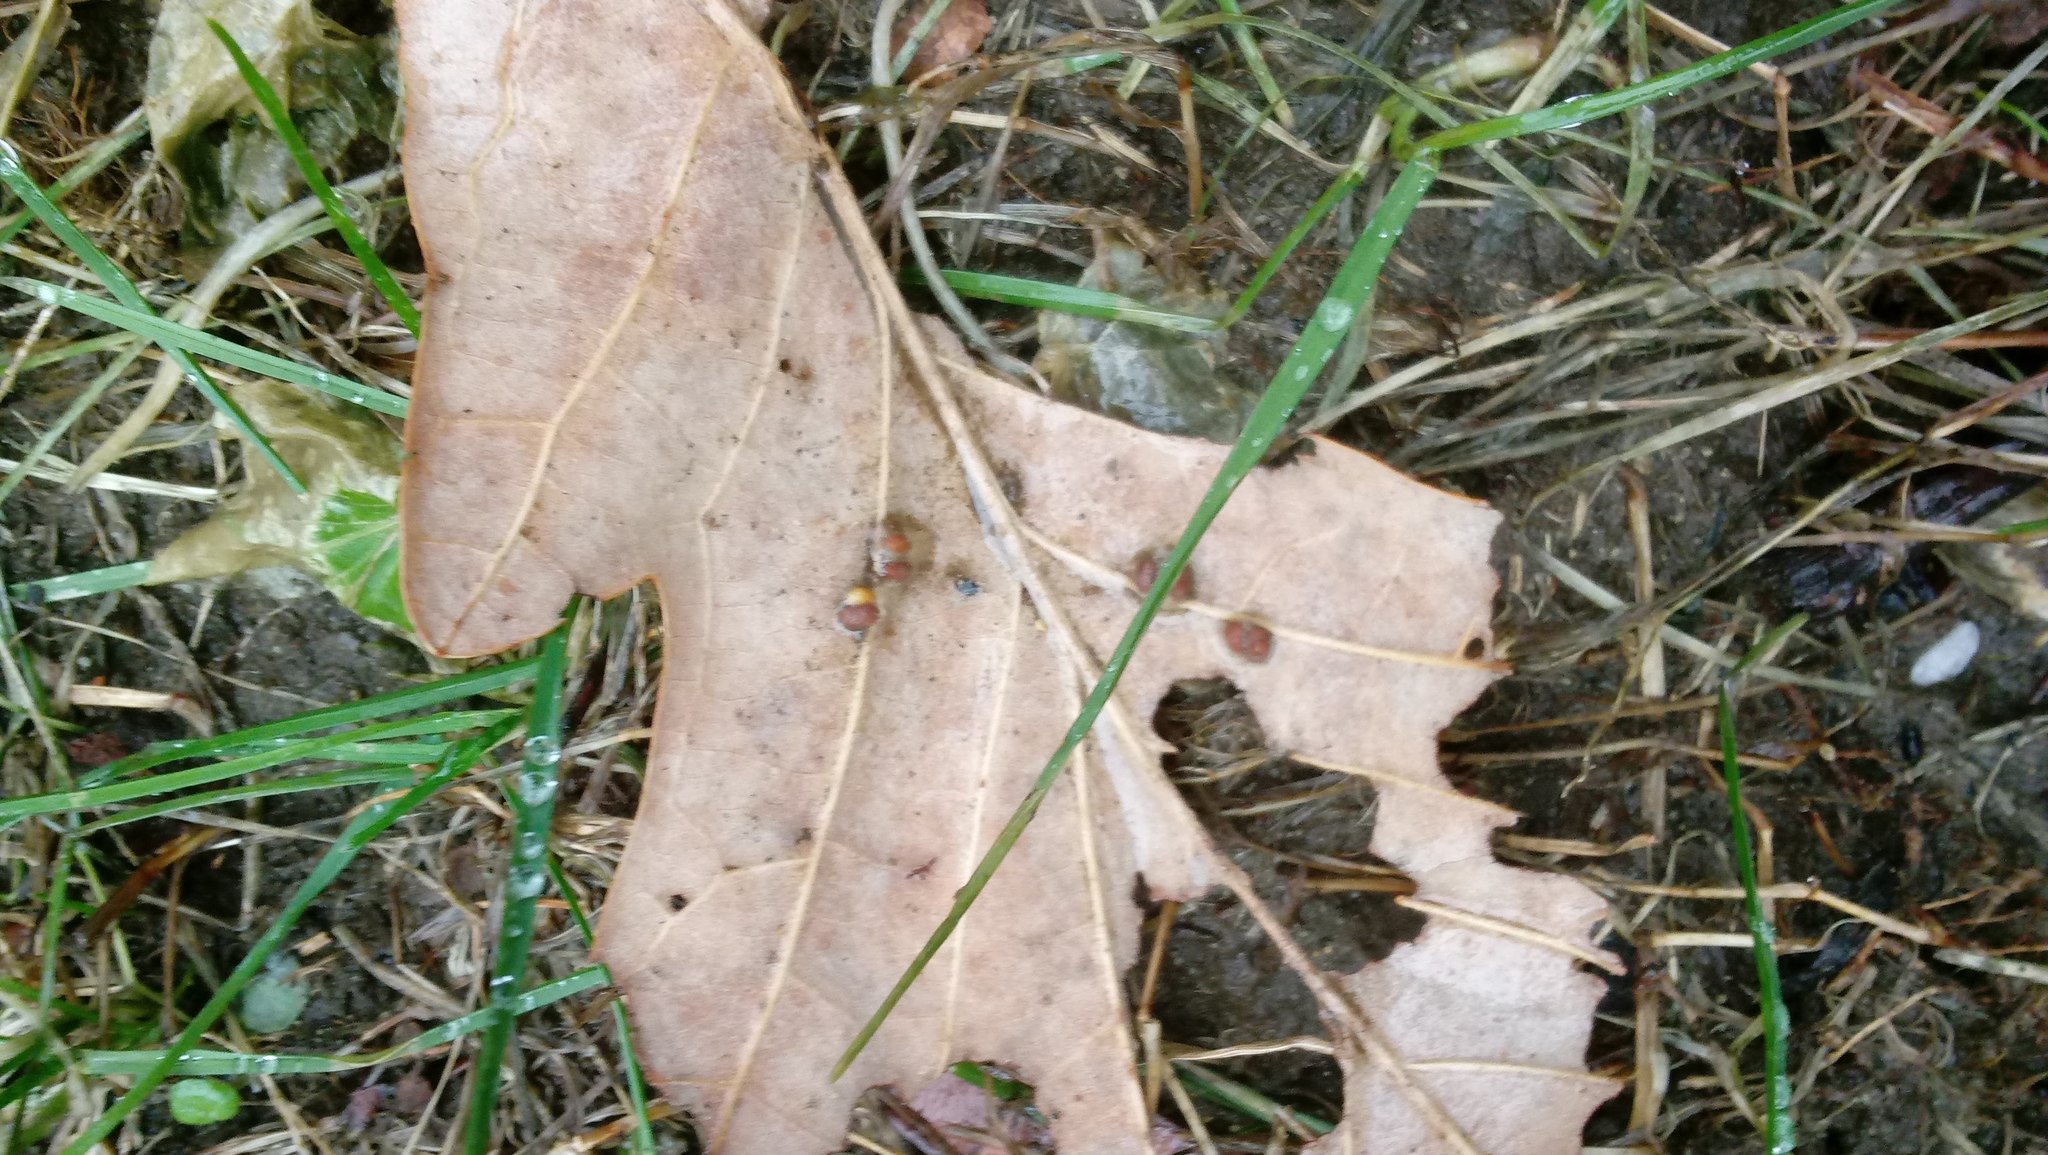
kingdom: Animalia
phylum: Arthropoda
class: Insecta
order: Hymenoptera
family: Cynipidae
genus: Andricus
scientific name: Andricus Druon ignotum
